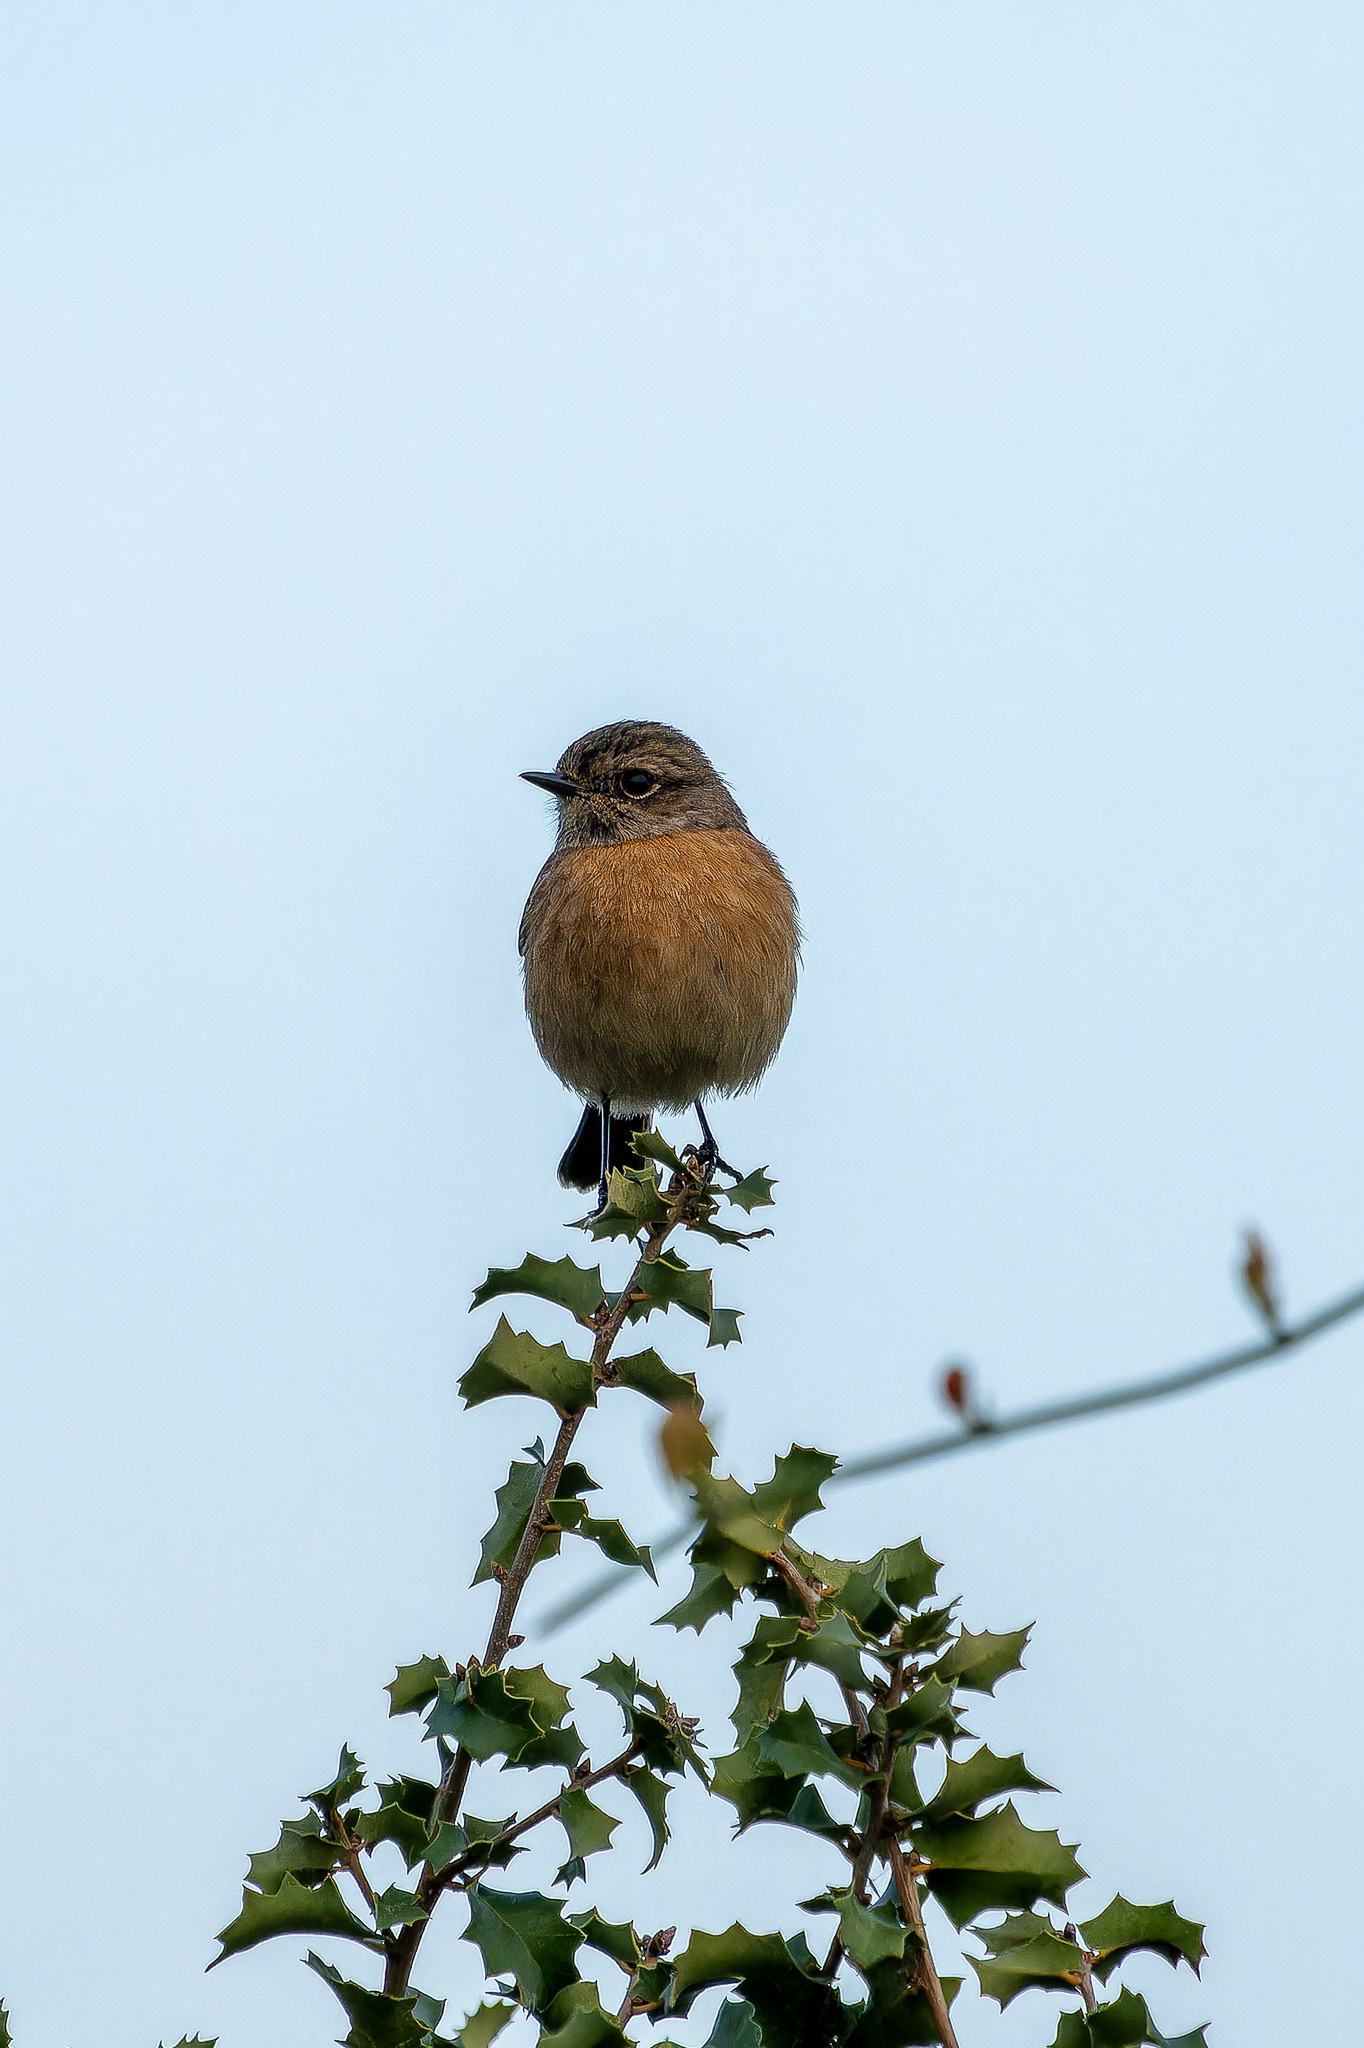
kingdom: Animalia
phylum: Chordata
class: Aves
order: Passeriformes
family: Muscicapidae
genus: Saxicola
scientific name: Saxicola rubicola
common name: European stonechat
